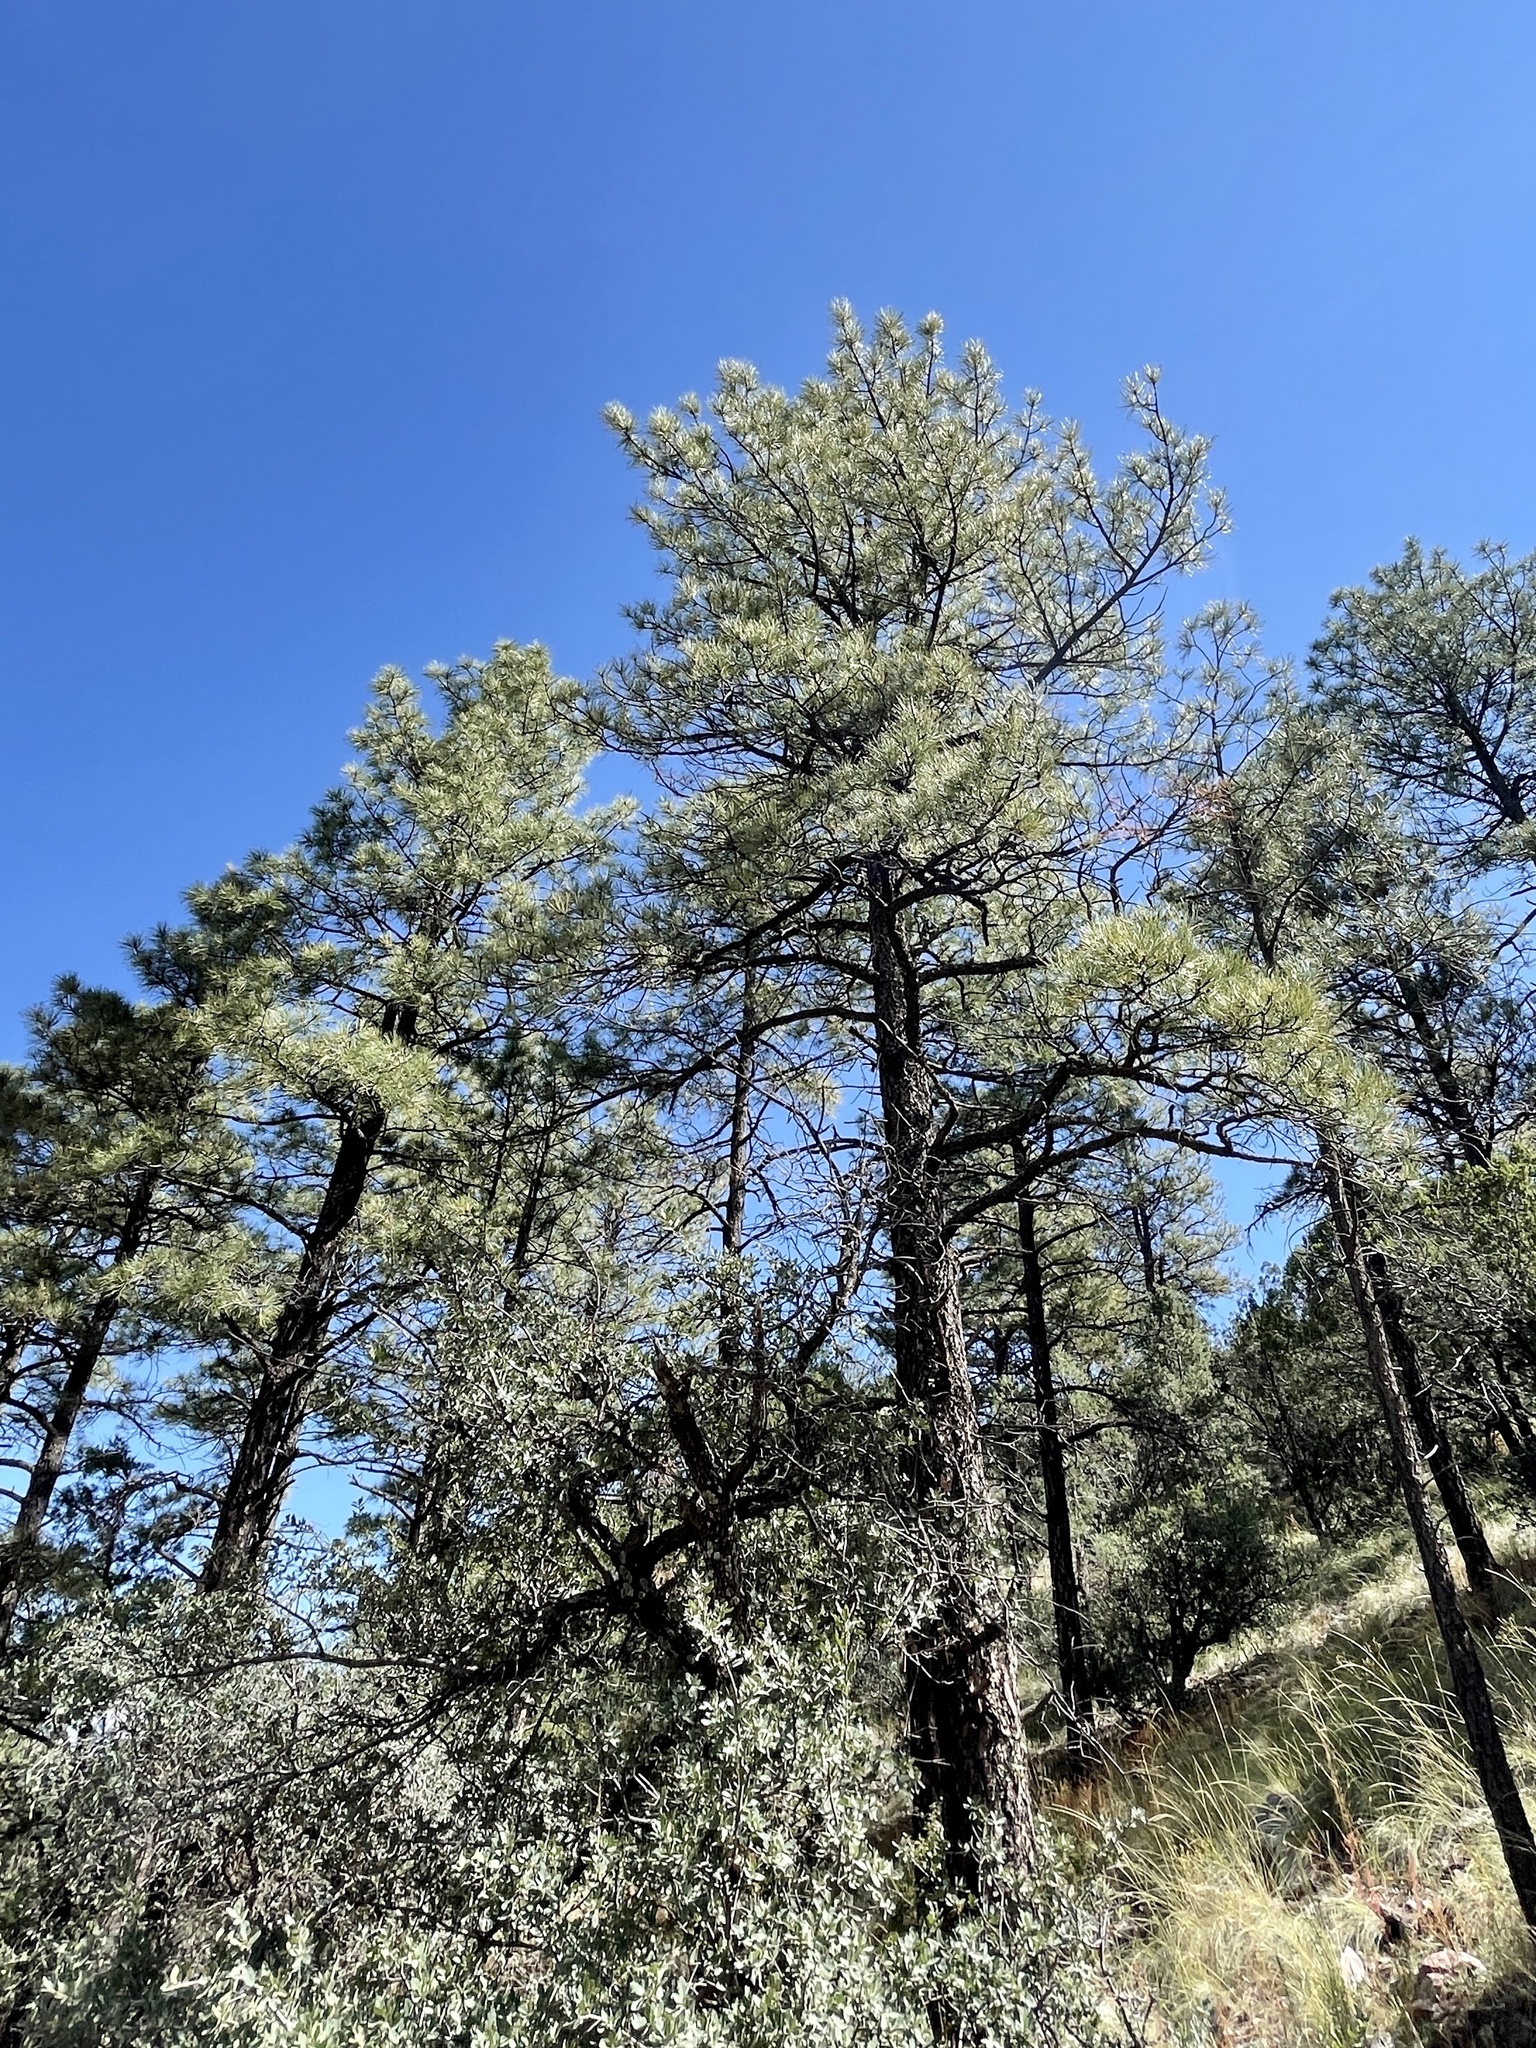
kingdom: Plantae
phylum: Tracheophyta
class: Pinopsida
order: Pinales
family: Pinaceae
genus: Pinus
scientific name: Pinus ponderosa
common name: Western yellow-pine
